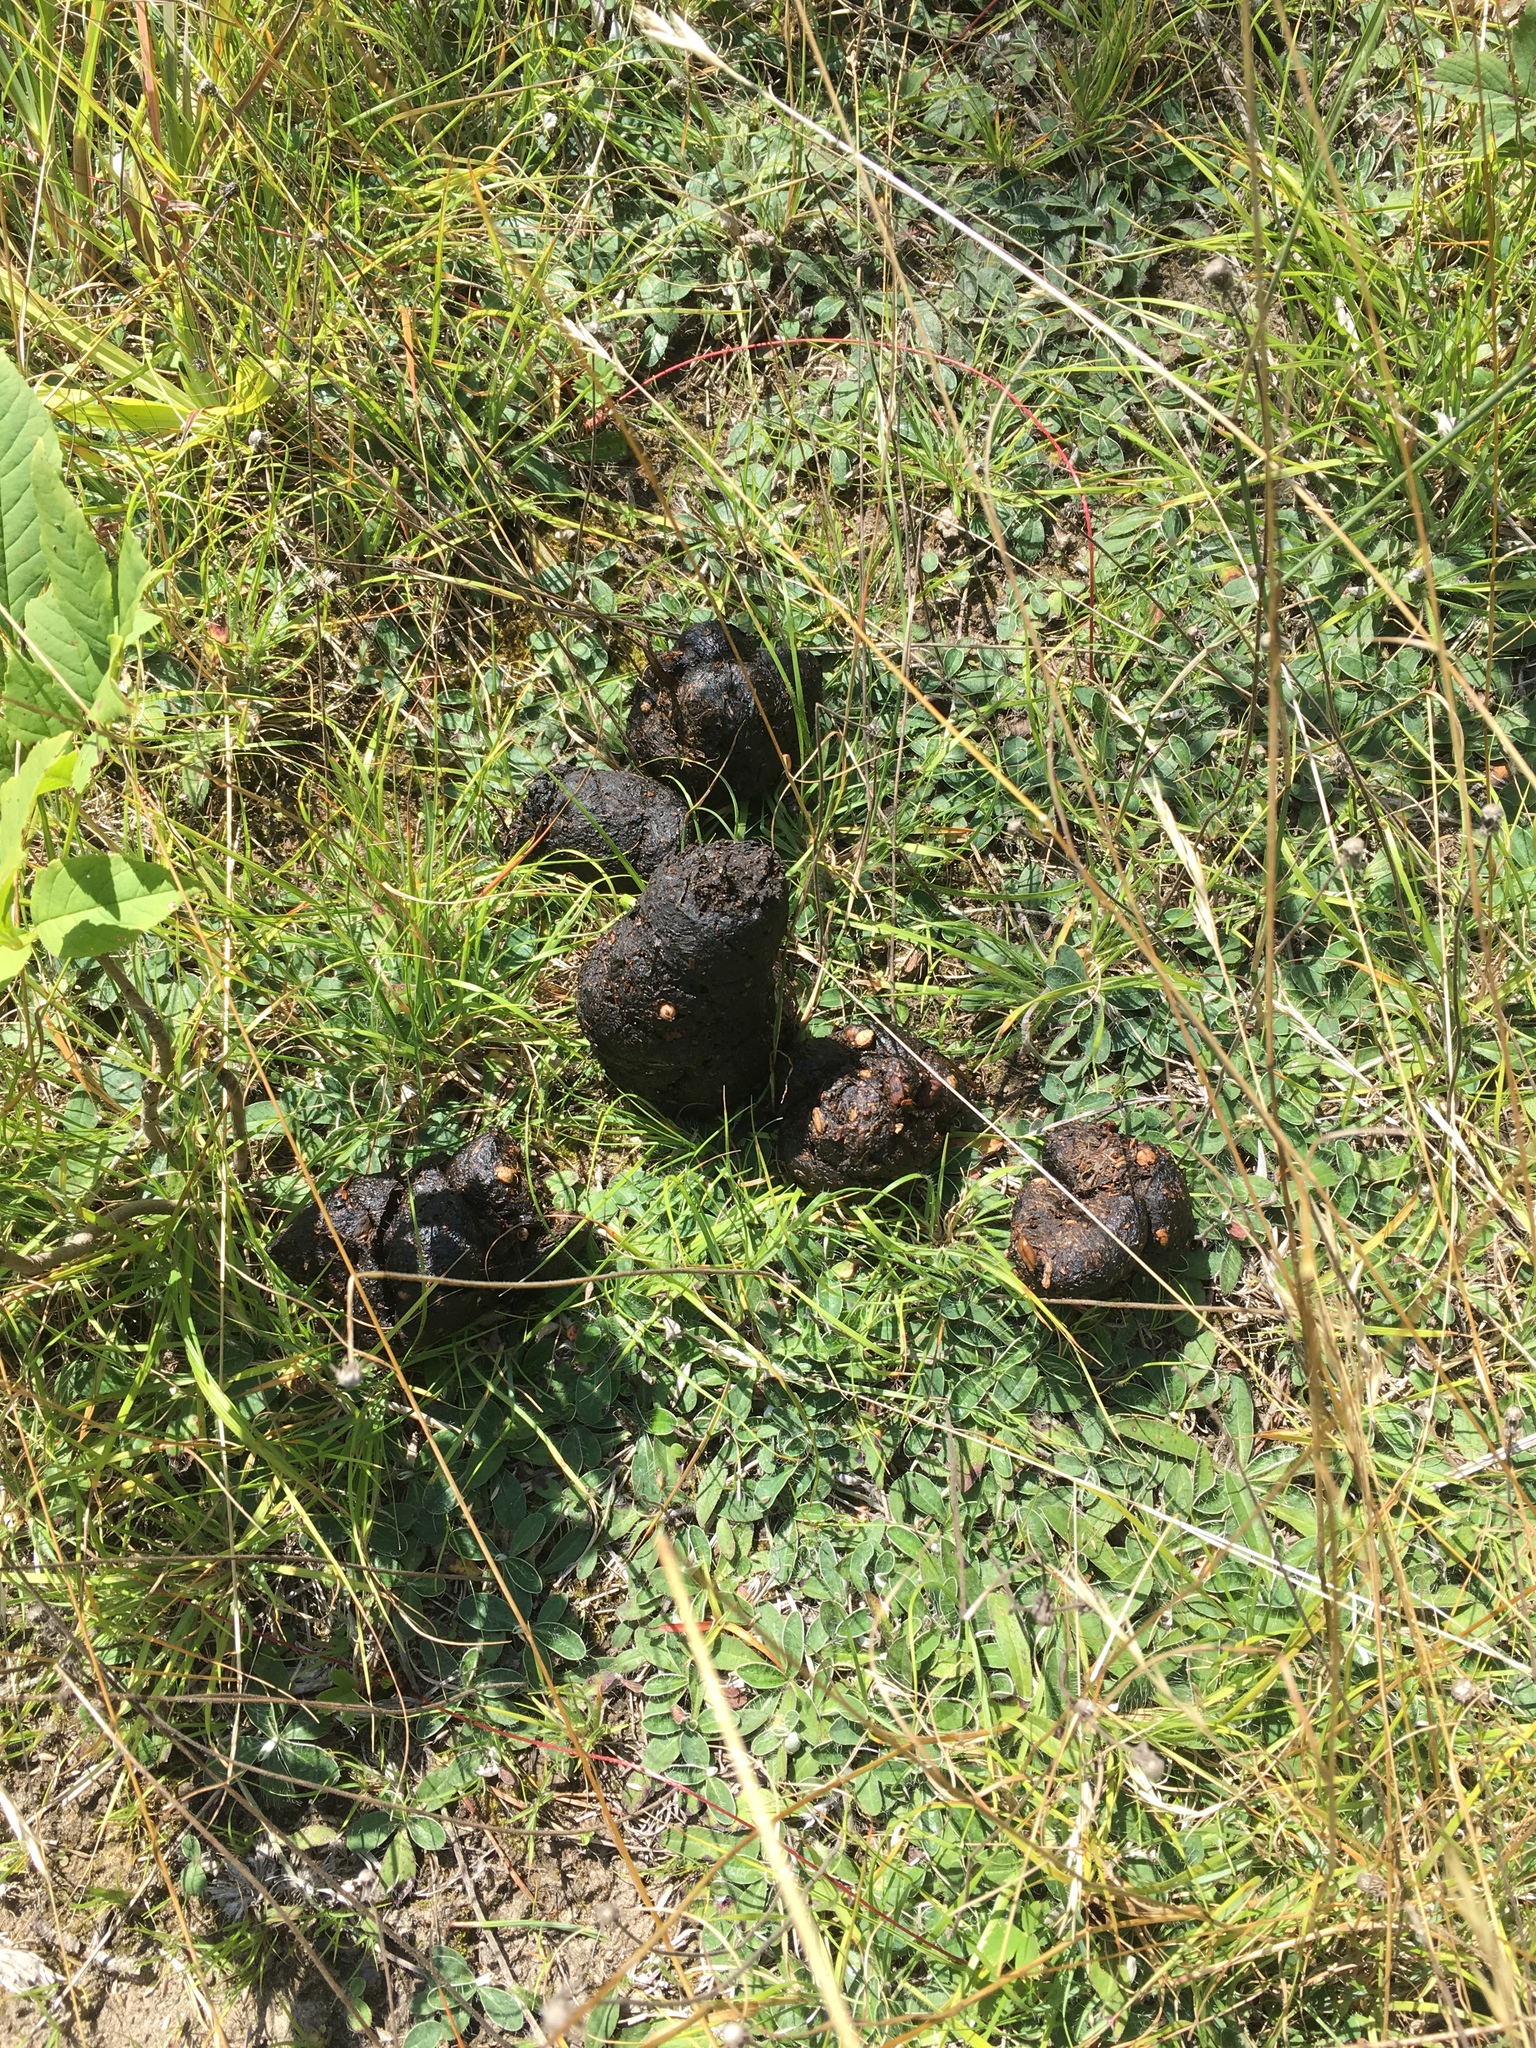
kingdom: Animalia
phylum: Chordata
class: Mammalia
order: Carnivora
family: Ursidae
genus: Ursus
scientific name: Ursus americanus
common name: American black bear
